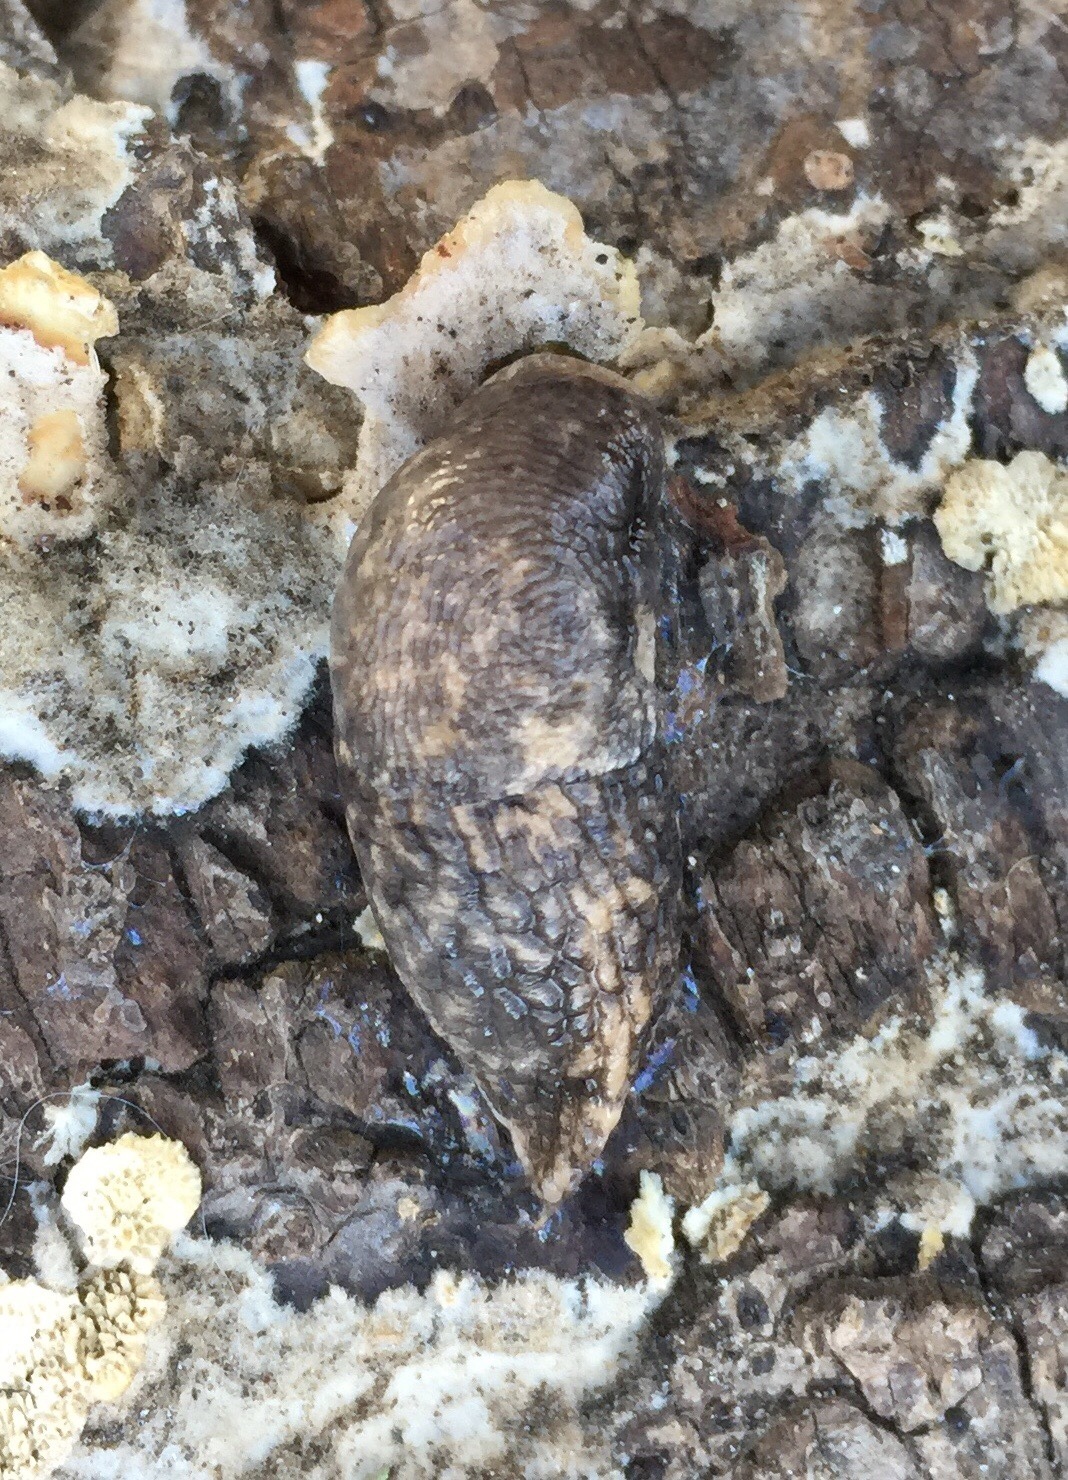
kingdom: Animalia
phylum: Mollusca
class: Gastropoda
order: Stylommatophora
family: Agriolimacidae
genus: Deroceras
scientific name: Deroceras reticulatum
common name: Gray field slug
